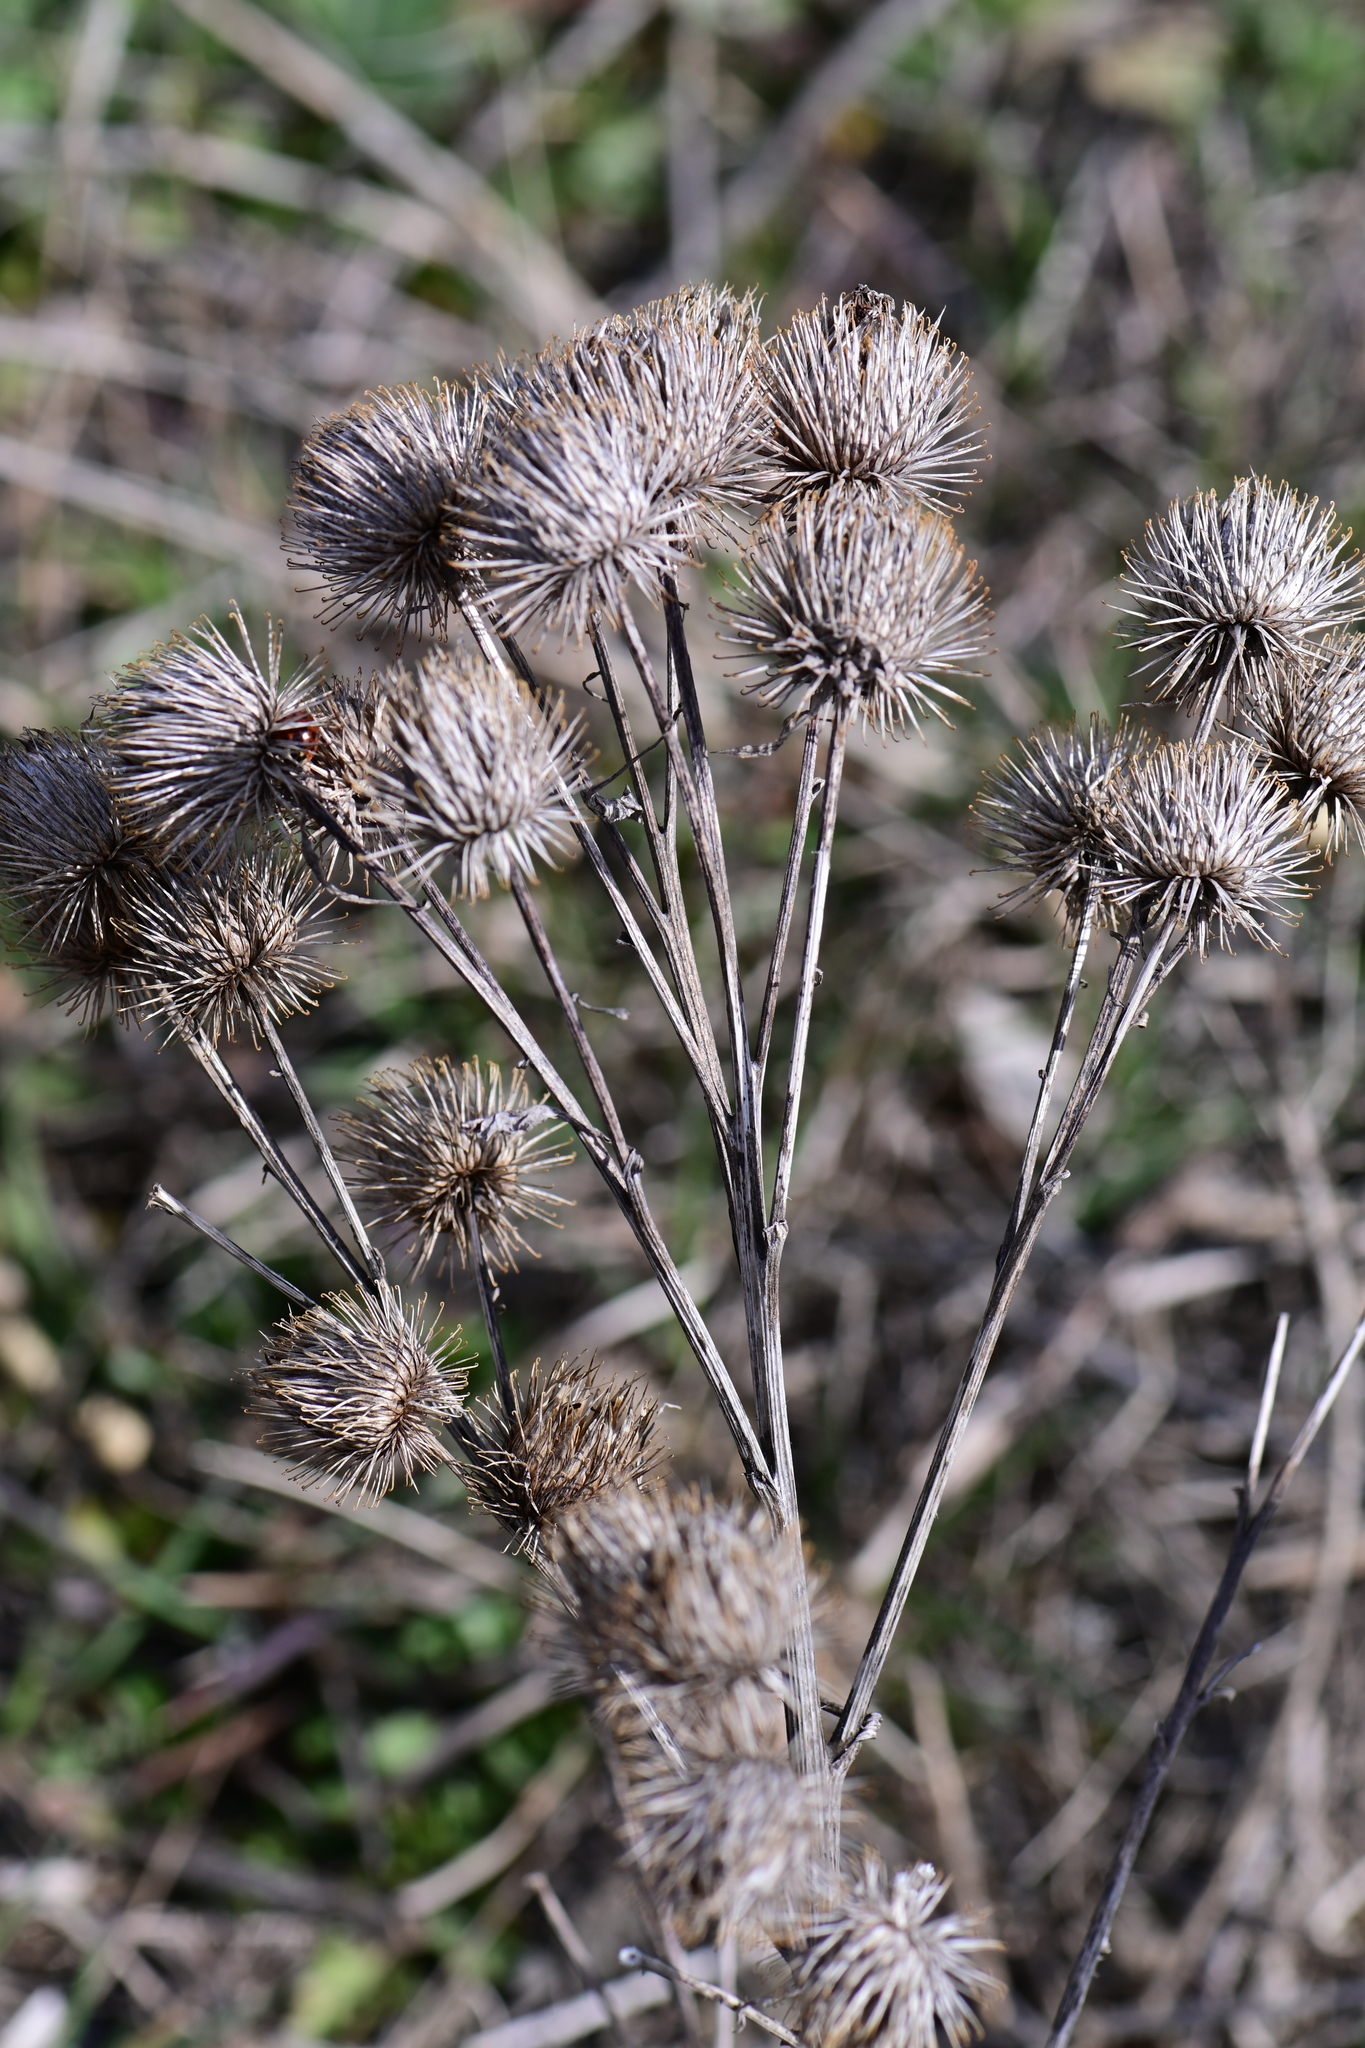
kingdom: Plantae
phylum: Tracheophyta
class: Magnoliopsida
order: Asterales
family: Asteraceae
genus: Arctium
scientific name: Arctium lappa
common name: Greater burdock
